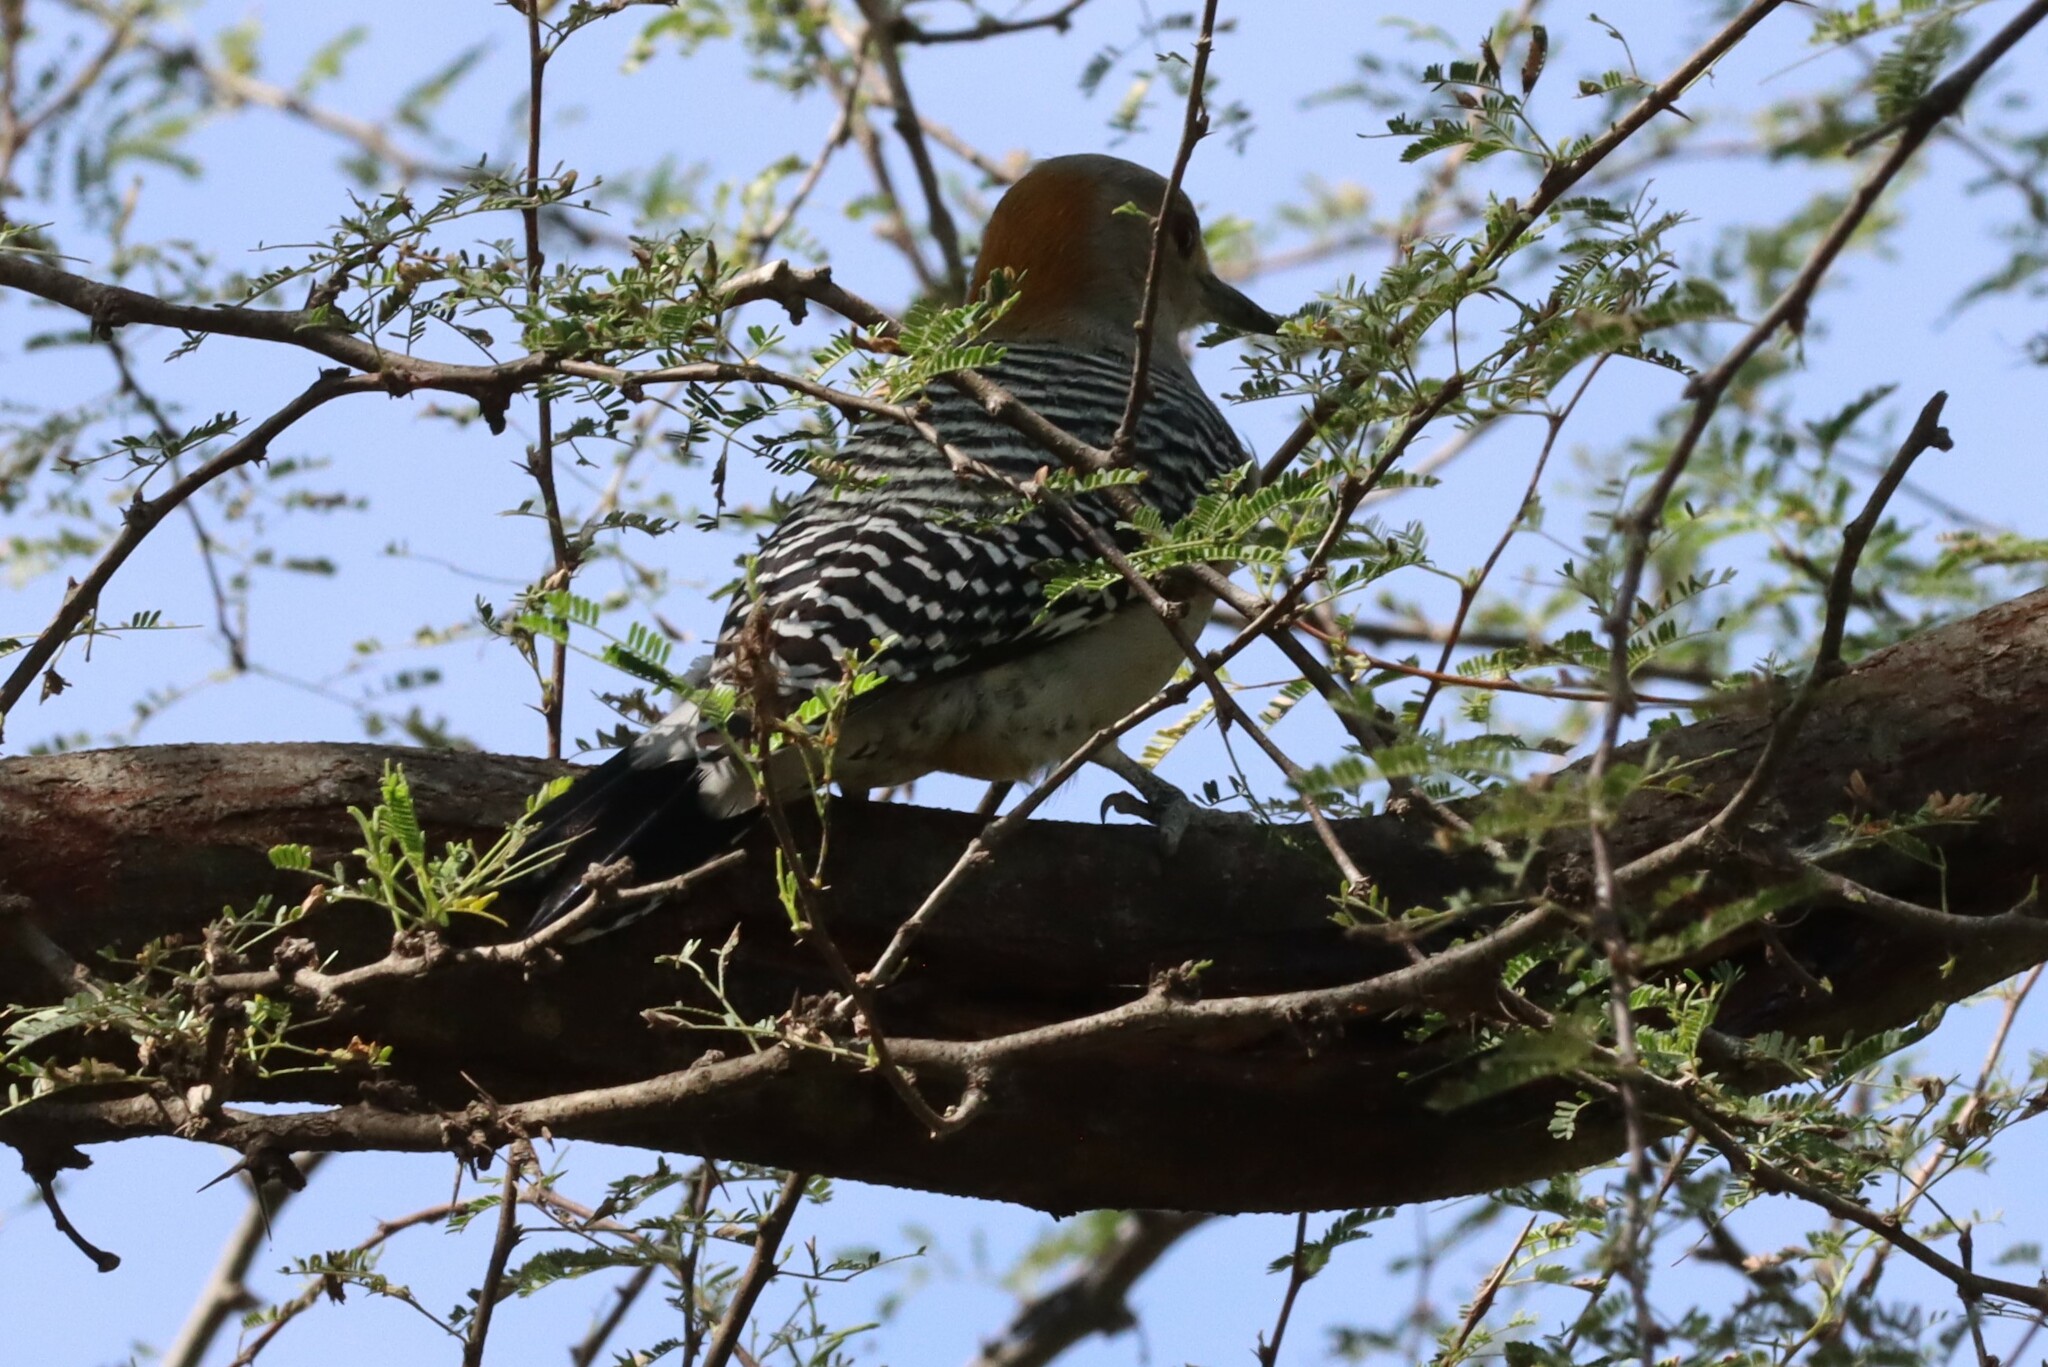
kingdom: Animalia
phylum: Chordata
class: Aves
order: Piciformes
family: Picidae
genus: Melanerpes
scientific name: Melanerpes aurifrons
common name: Golden-fronted woodpecker
